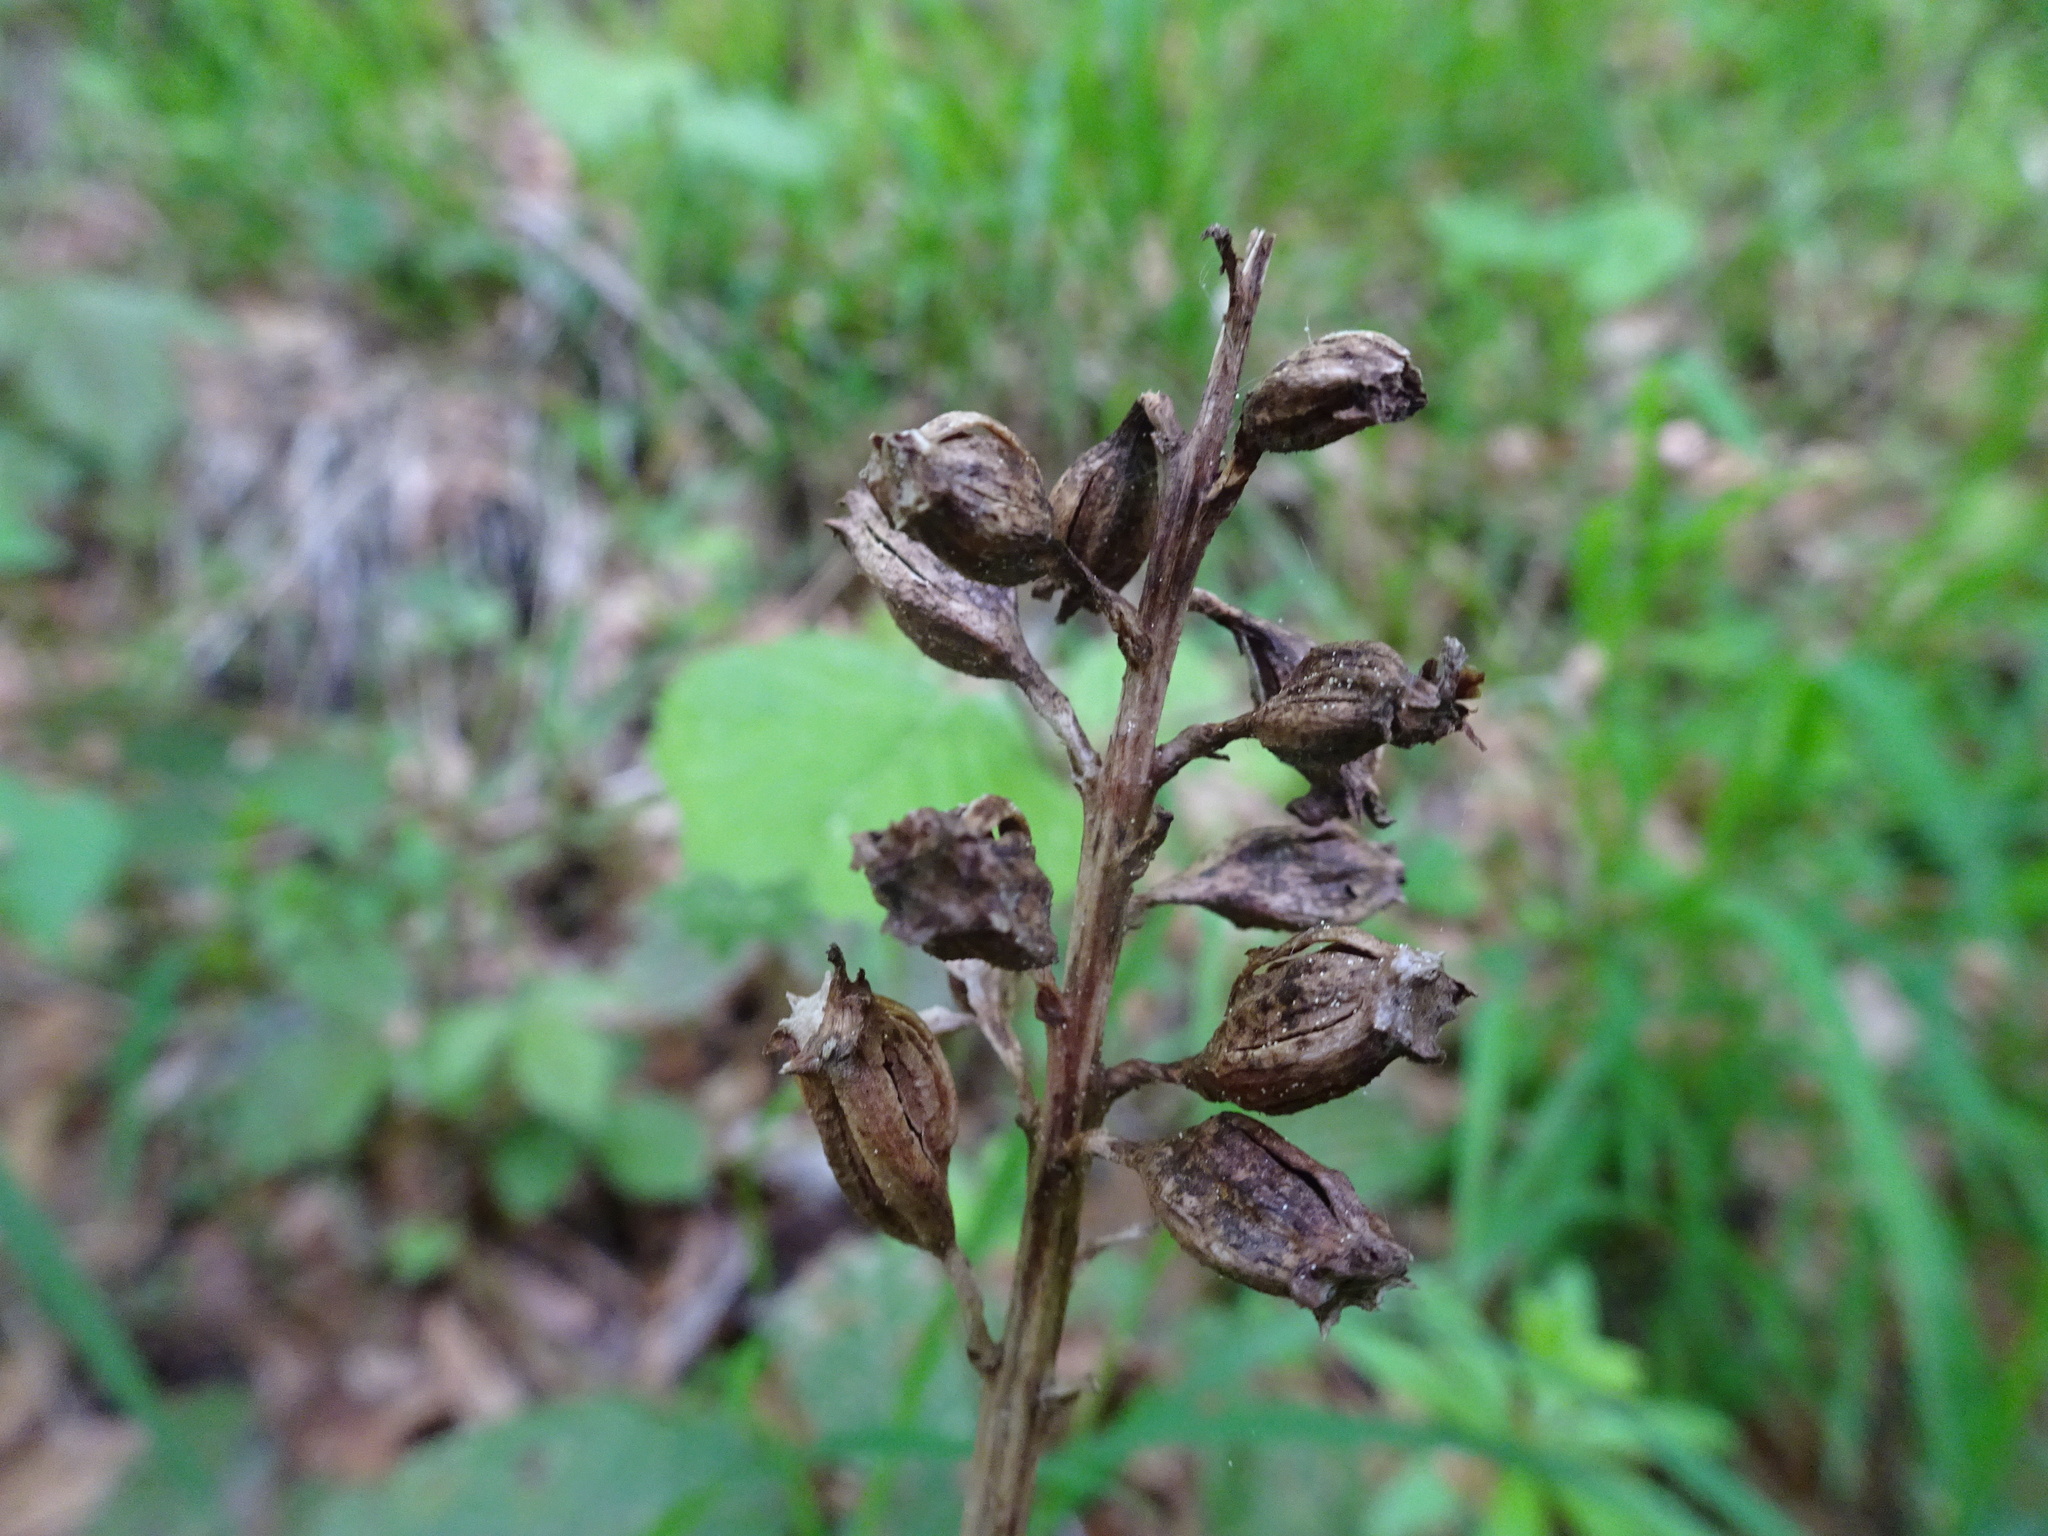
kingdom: Plantae
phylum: Tracheophyta
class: Liliopsida
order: Asparagales
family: Orchidaceae
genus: Neottia
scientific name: Neottia nidus-avis
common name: Bird's-nest orchid
